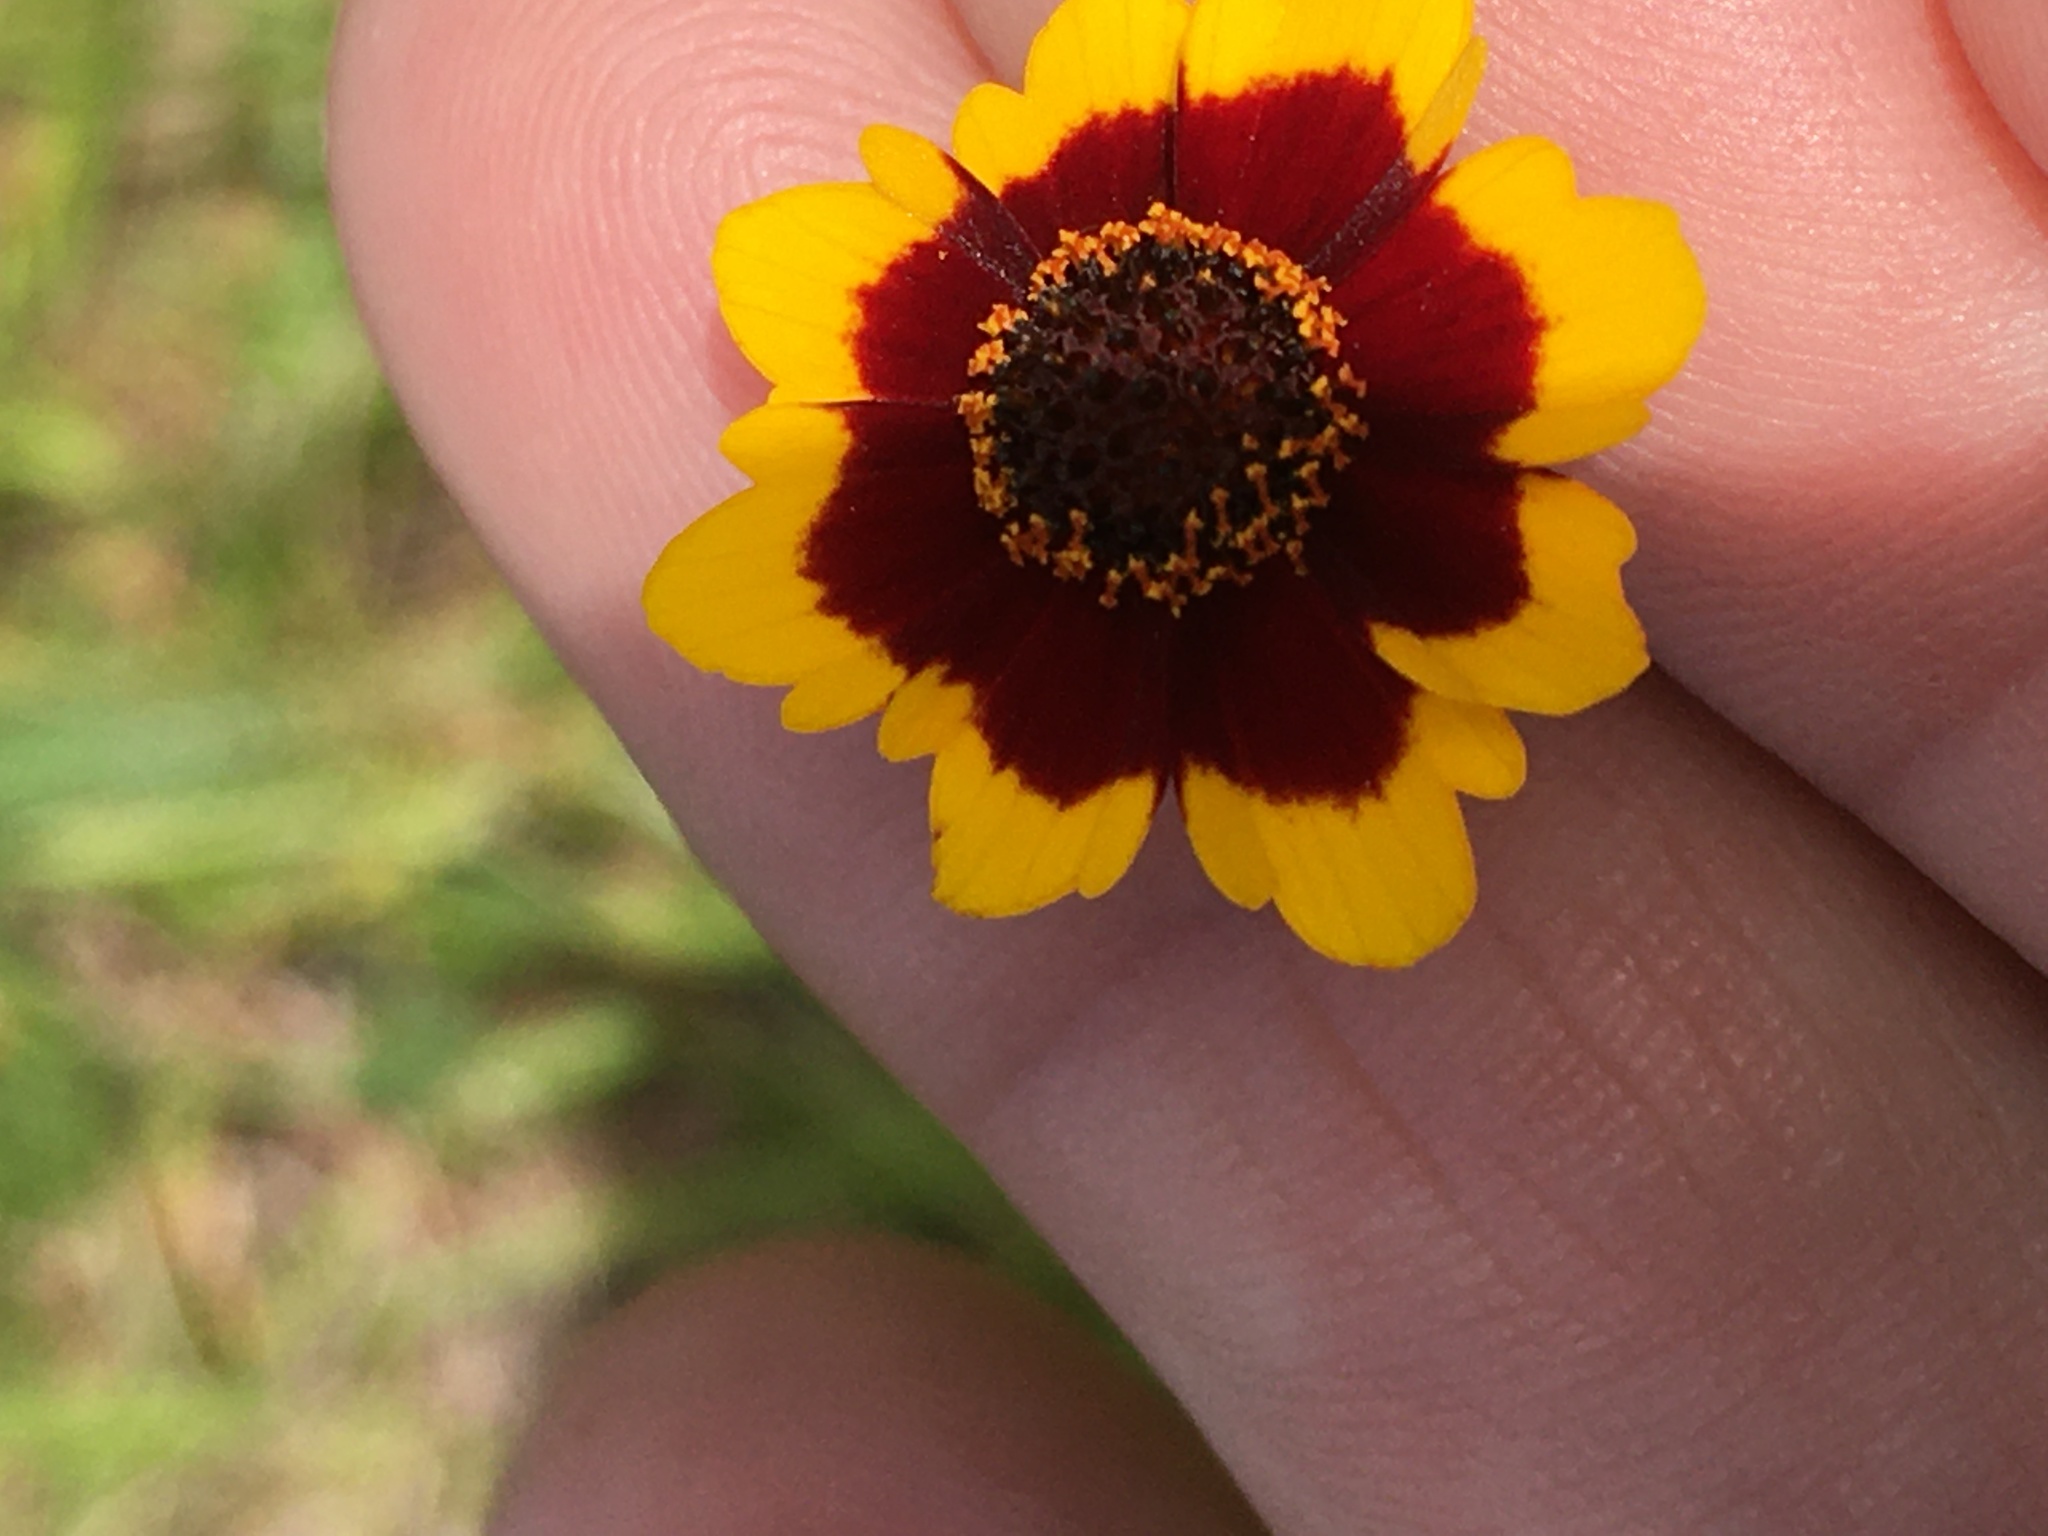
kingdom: Plantae
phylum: Tracheophyta
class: Magnoliopsida
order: Asterales
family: Asteraceae
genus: Coreopsis
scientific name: Coreopsis tinctoria
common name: Garden tickseed
